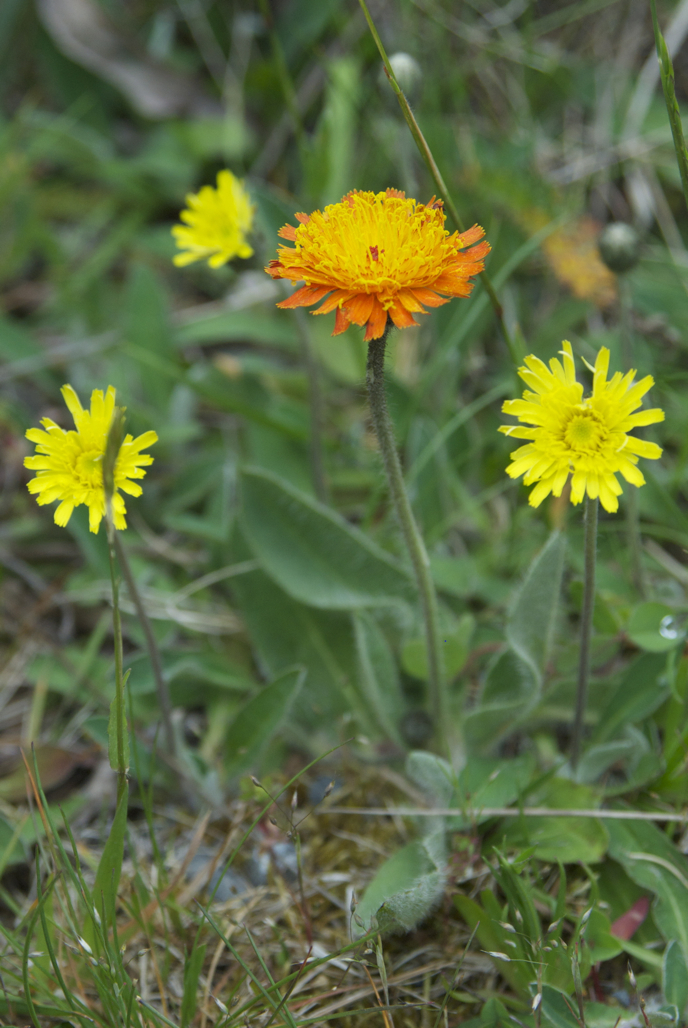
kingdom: Plantae
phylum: Tracheophyta
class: Magnoliopsida
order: Asterales
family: Asteraceae
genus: Pilosella
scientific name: Pilosella stoloniflora
